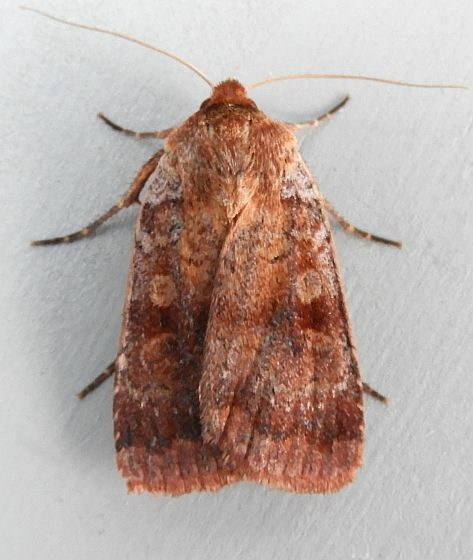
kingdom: Animalia
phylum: Arthropoda
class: Insecta
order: Lepidoptera
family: Noctuidae
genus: Lycophotia
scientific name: Lycophotia phyllophora
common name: Lycophotia moth
